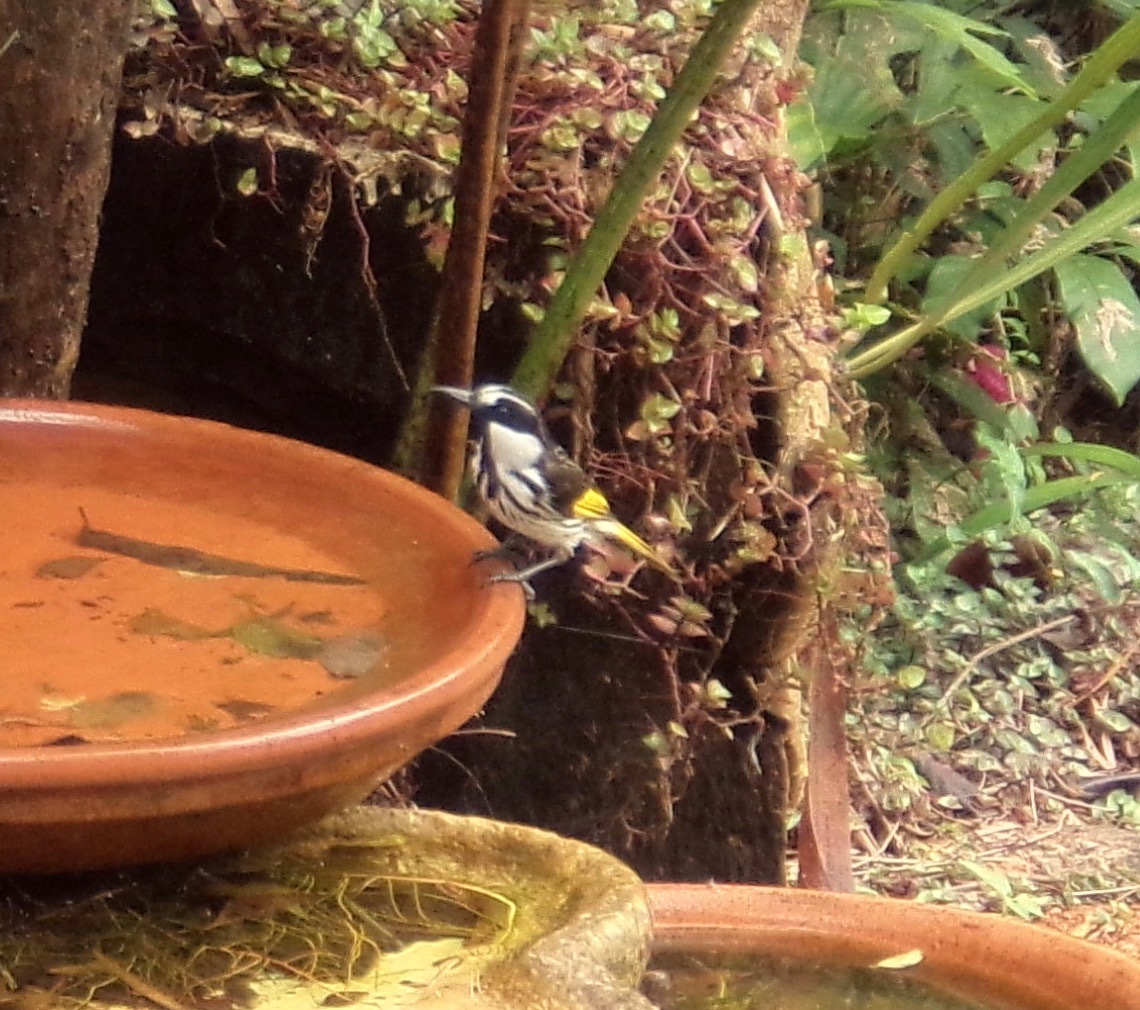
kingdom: Animalia
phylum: Chordata
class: Aves
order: Passeriformes
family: Meliphagidae
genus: Phylidonyris
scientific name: Phylidonyris niger
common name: White-cheeked honeyeater
